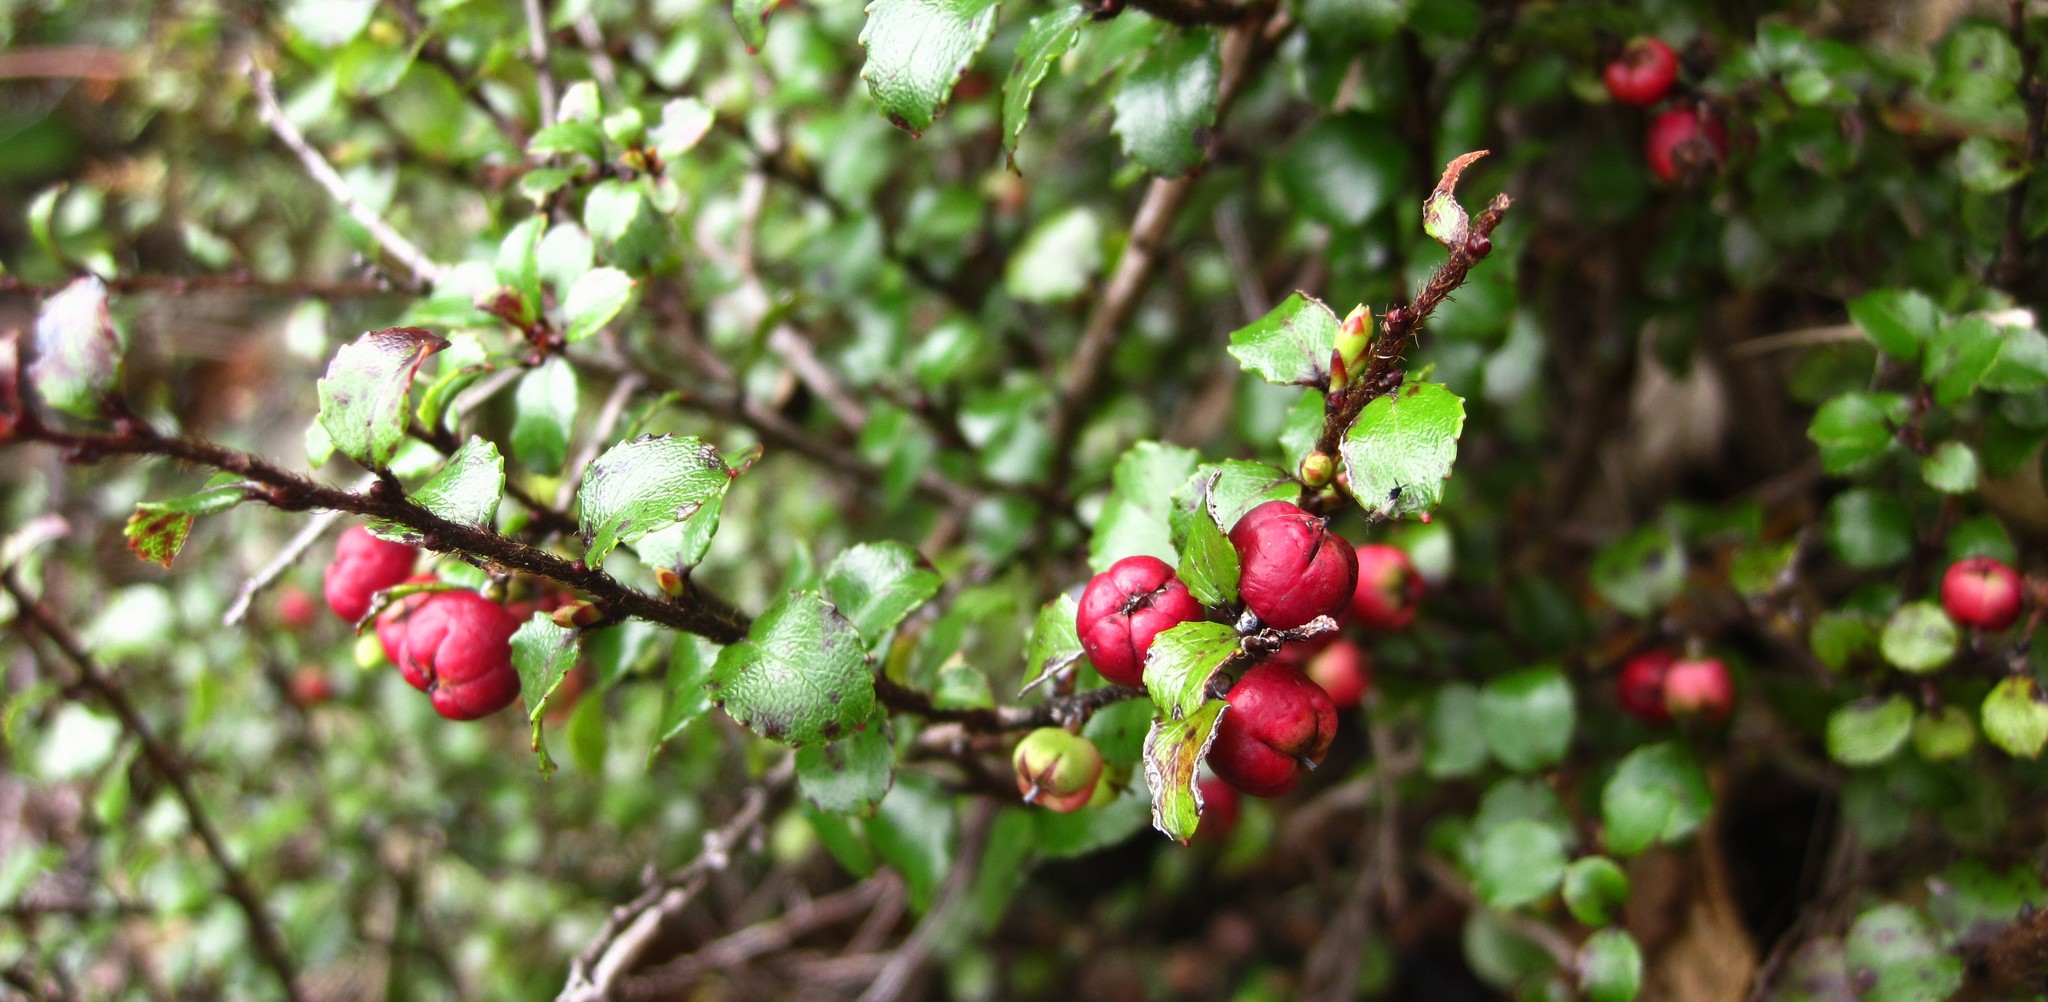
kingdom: Plantae
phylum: Tracheophyta
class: Magnoliopsida
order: Ericales
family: Ericaceae
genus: Gaultheria
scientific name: Gaultheria antipoda
